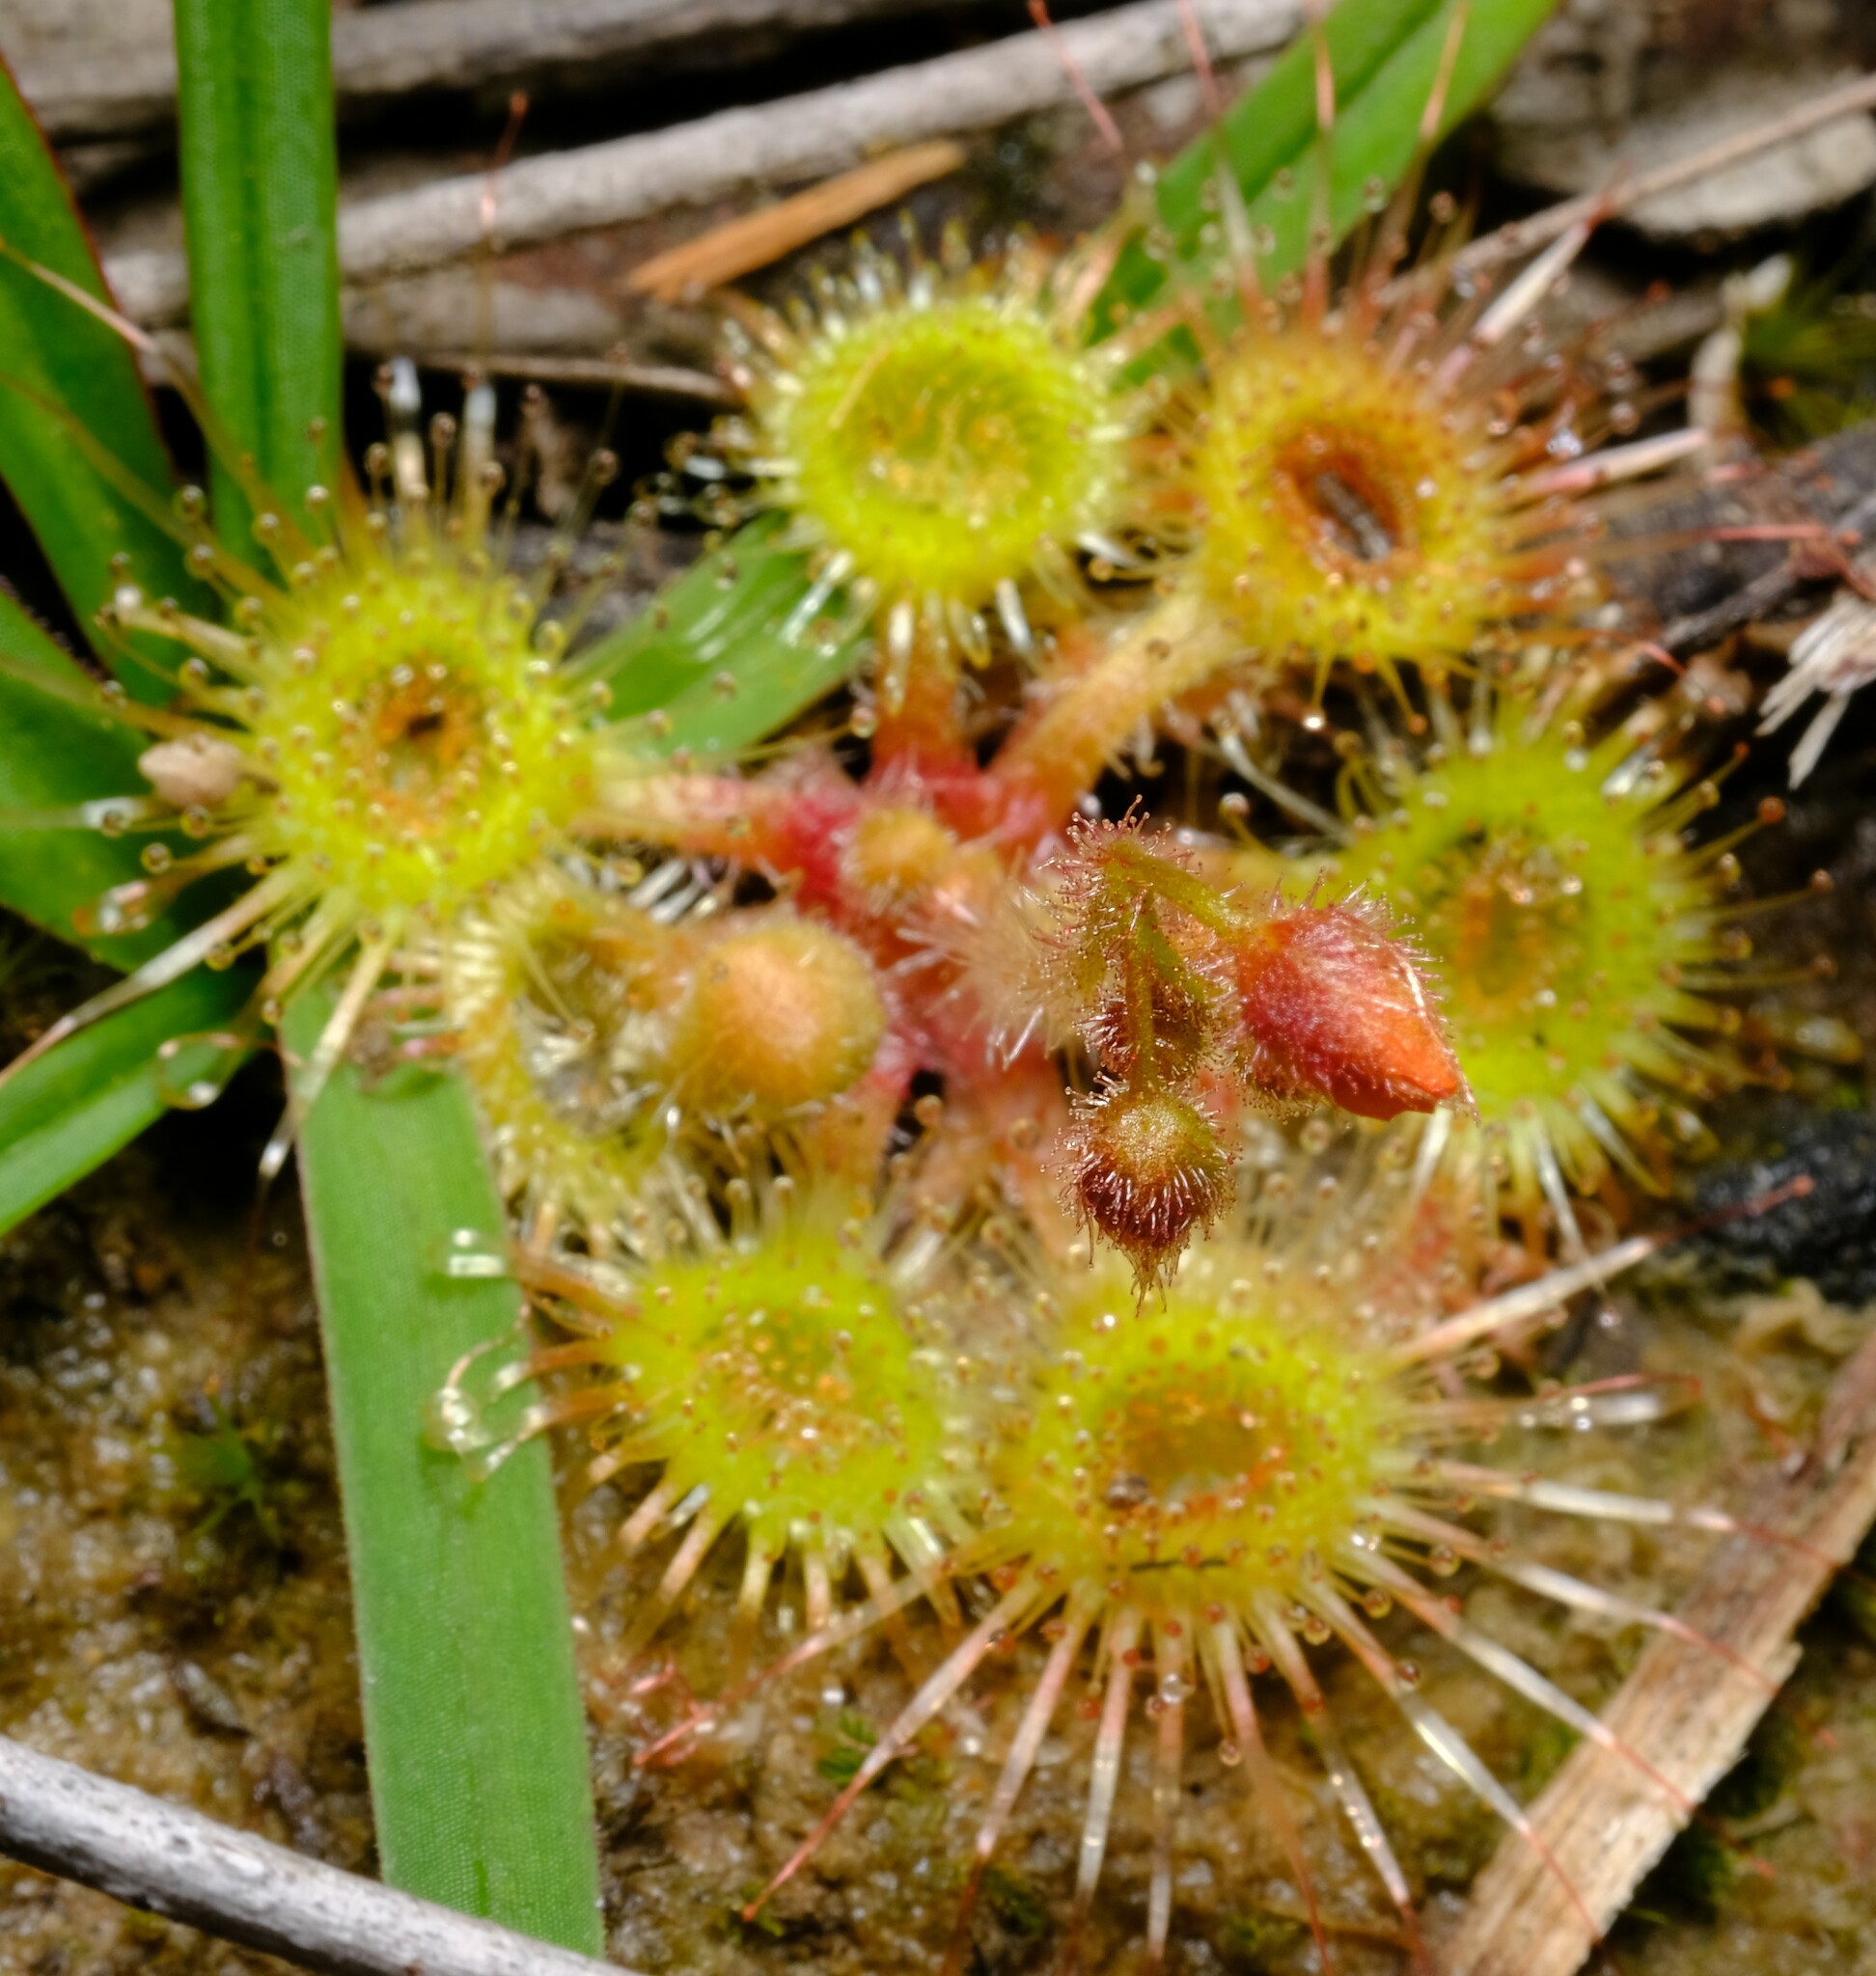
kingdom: Plantae
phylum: Tracheophyta
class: Magnoliopsida
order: Caryophyllales
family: Droseraceae
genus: Drosera
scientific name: Drosera glanduligera
